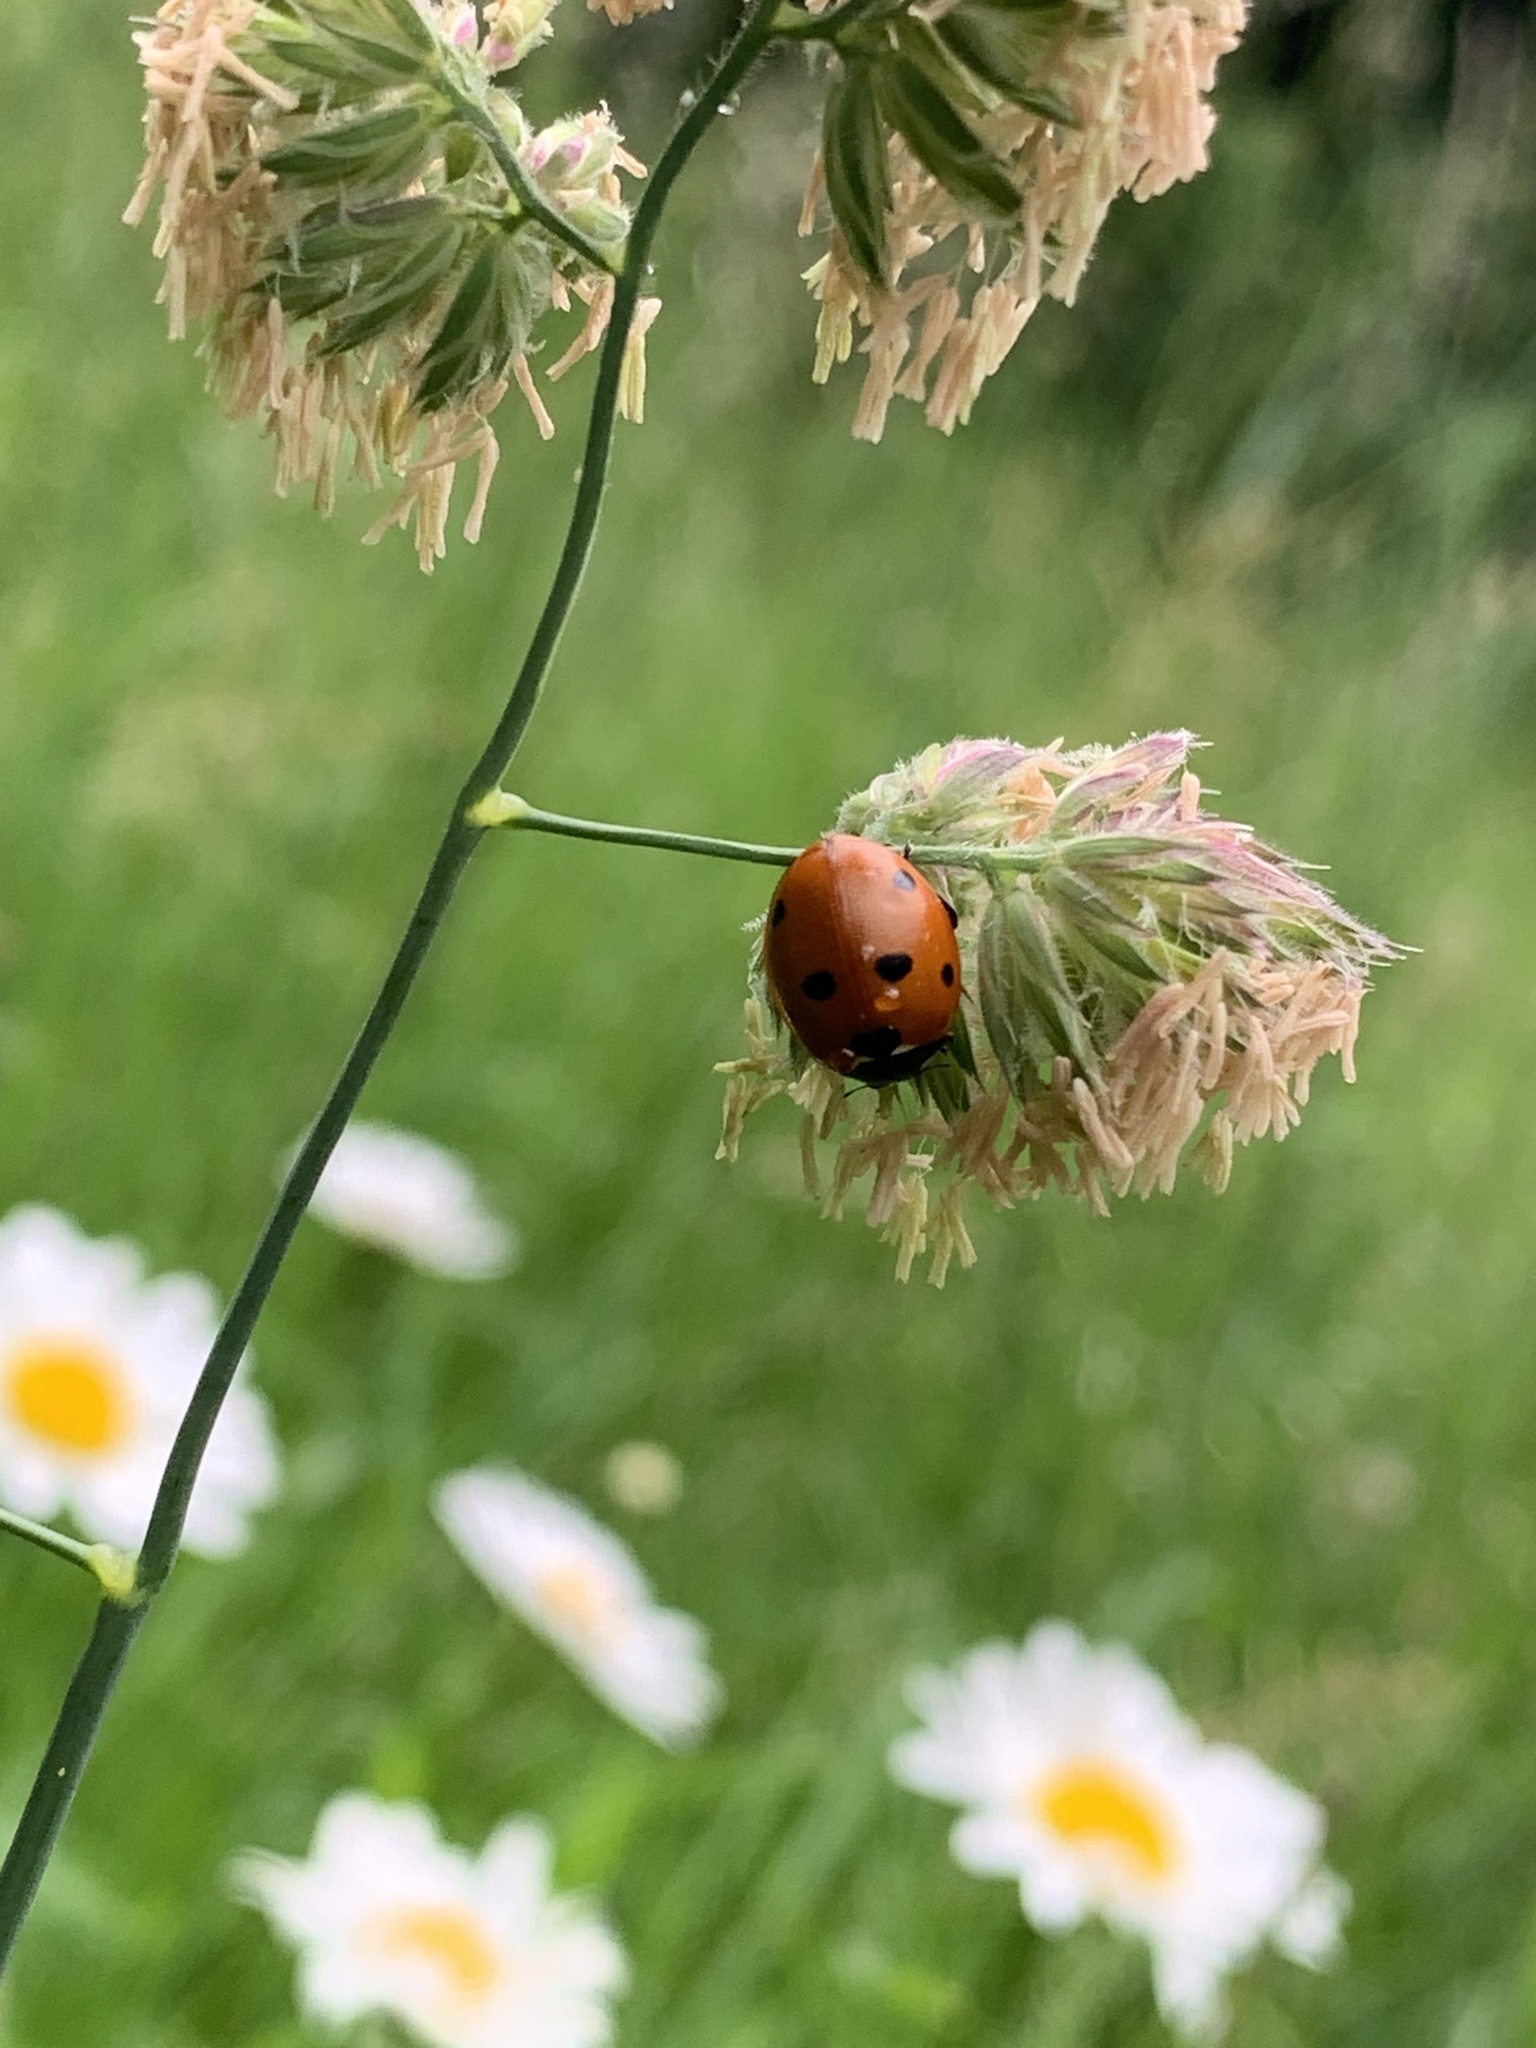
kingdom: Animalia
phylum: Arthropoda
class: Insecta
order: Coleoptera
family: Coccinellidae
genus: Coccinella
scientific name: Coccinella septempunctata
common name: Sevenspotted lady beetle
